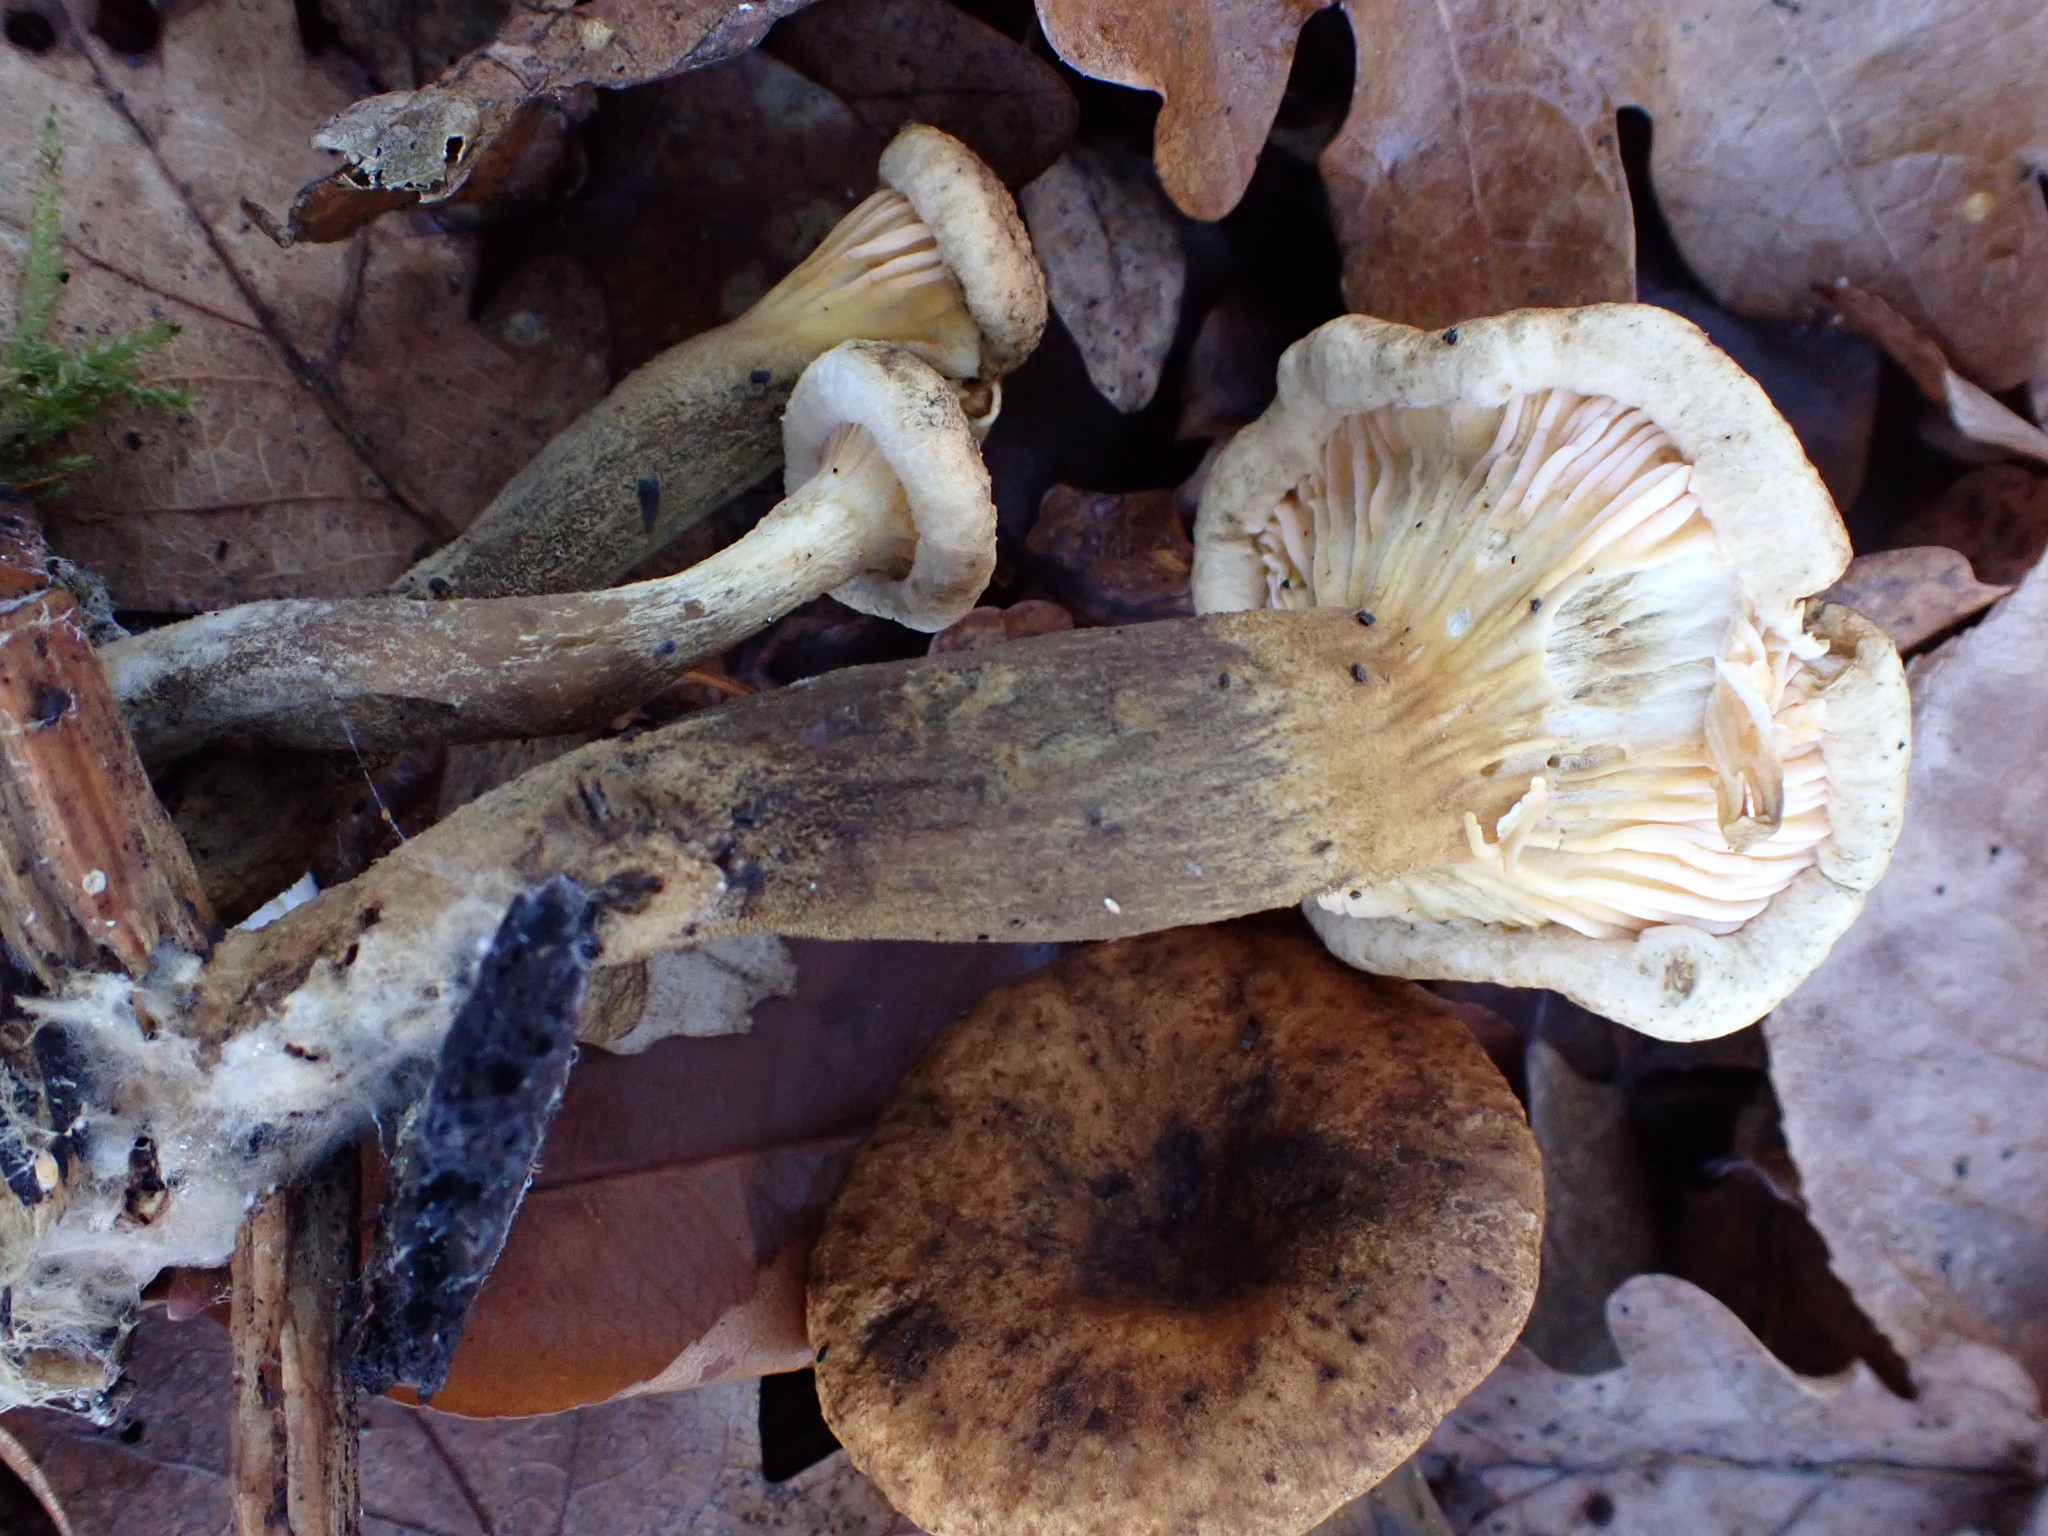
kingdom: Fungi
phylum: Basidiomycota
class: Agaricomycetes
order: Boletales
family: Hygrophoropsidaceae
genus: Hygrophoropsis
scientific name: Hygrophoropsis aurantiaca
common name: False chanterelle
